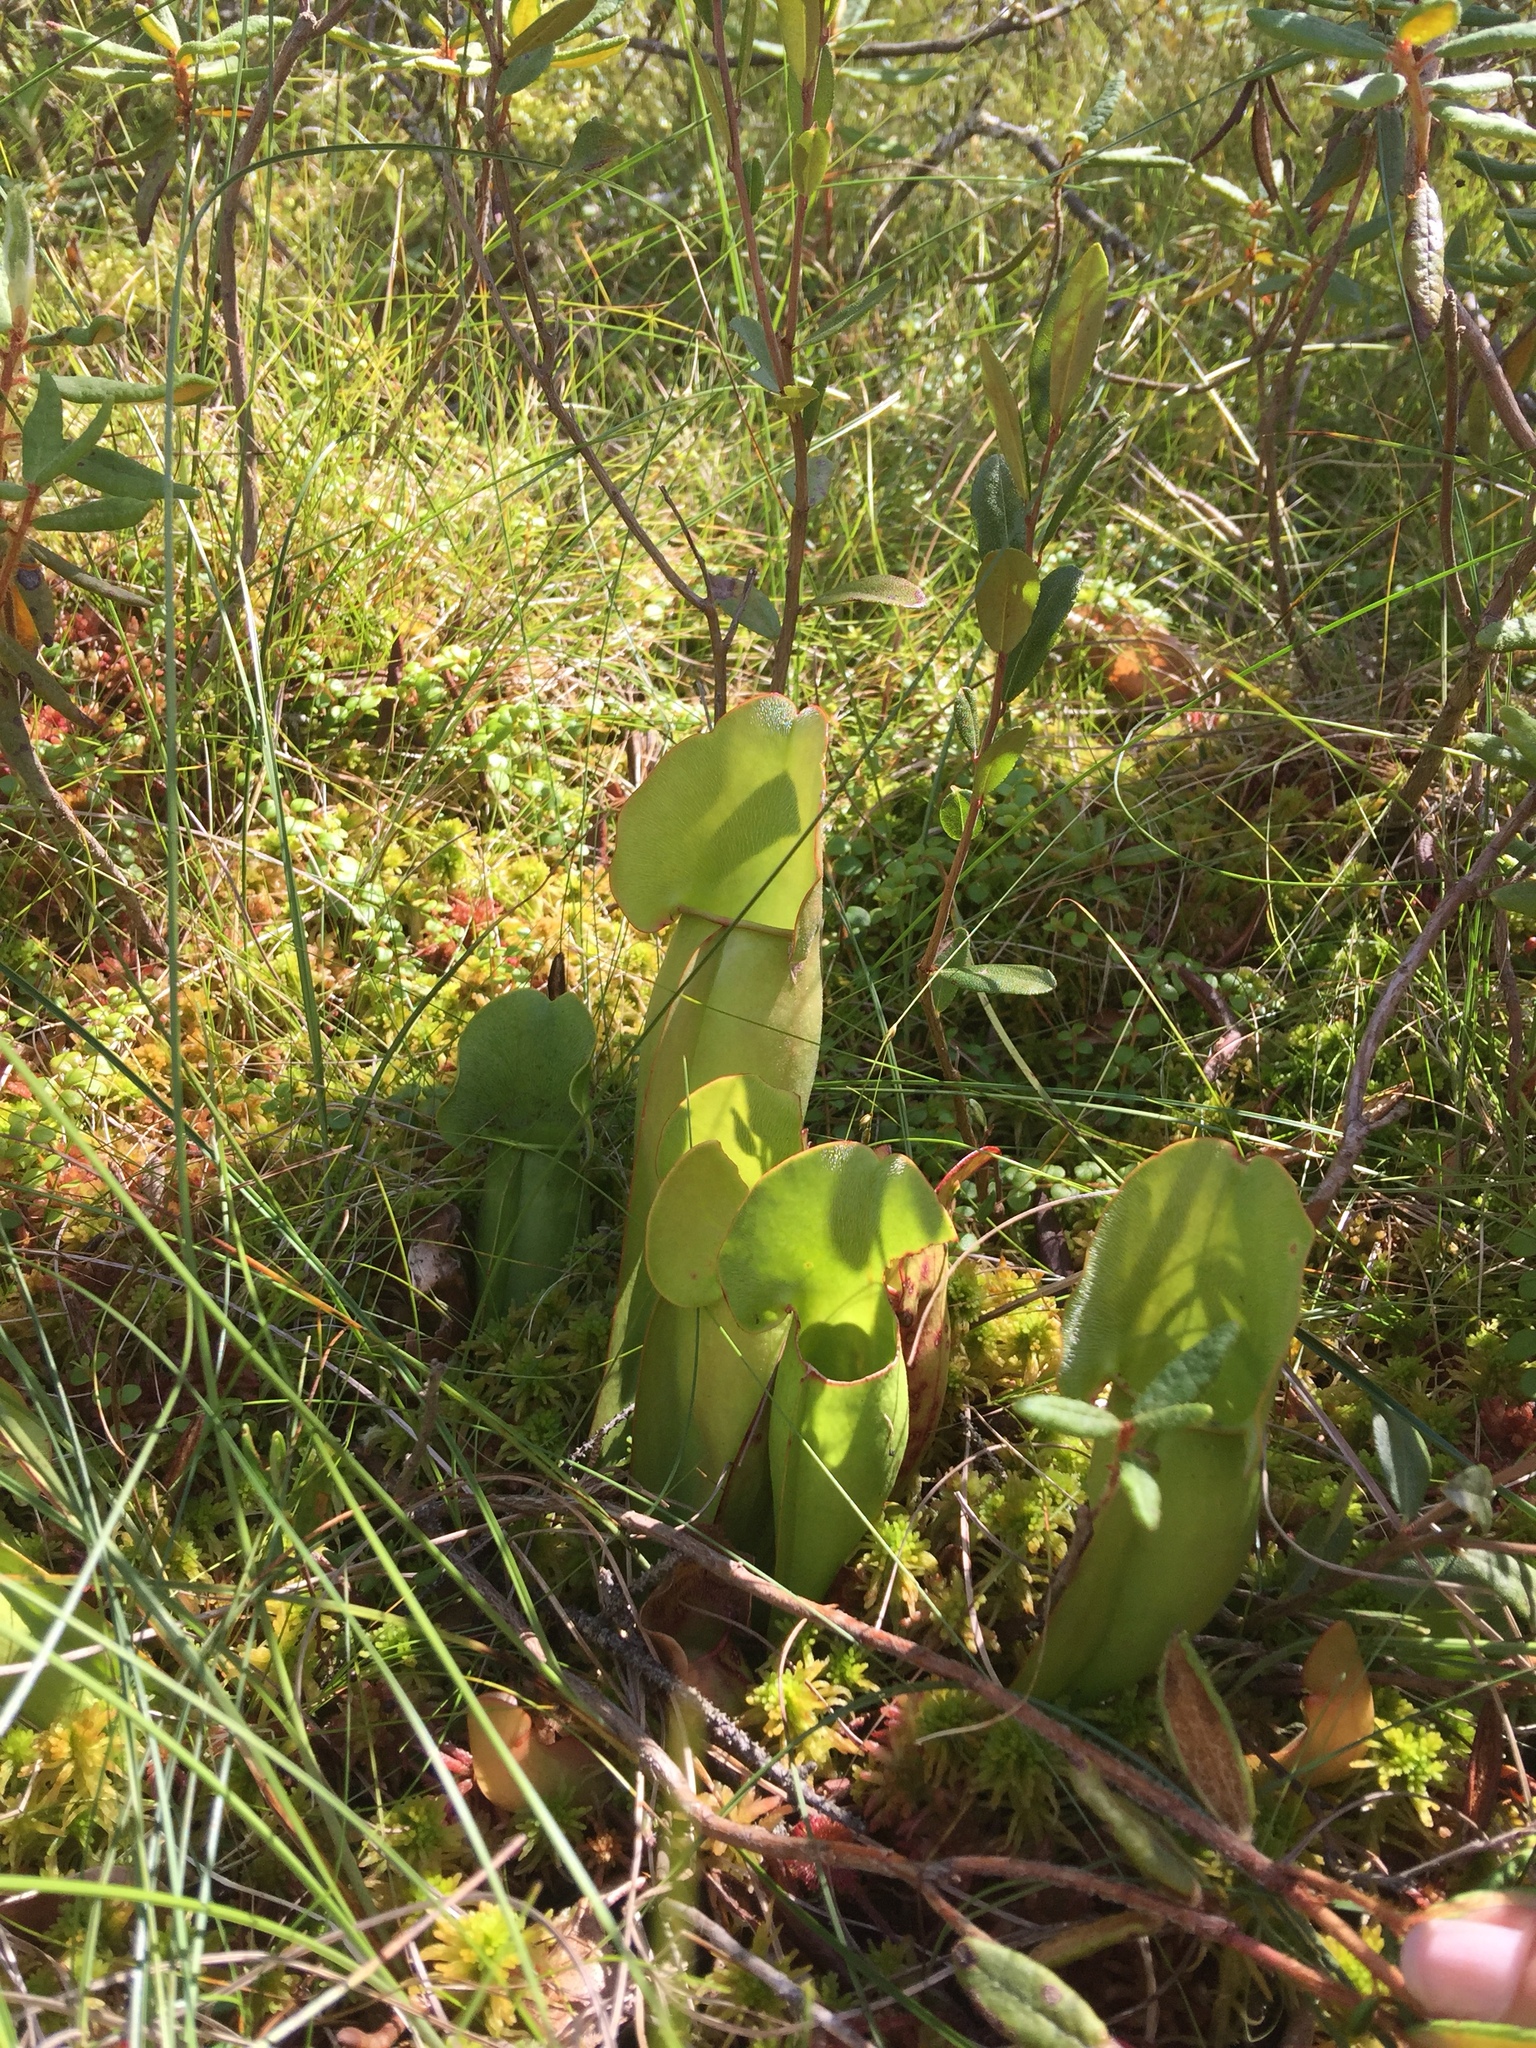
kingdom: Plantae
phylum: Tracheophyta
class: Magnoliopsida
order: Ericales
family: Sarraceniaceae
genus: Sarracenia
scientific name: Sarracenia purpurea
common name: Pitcherplant
